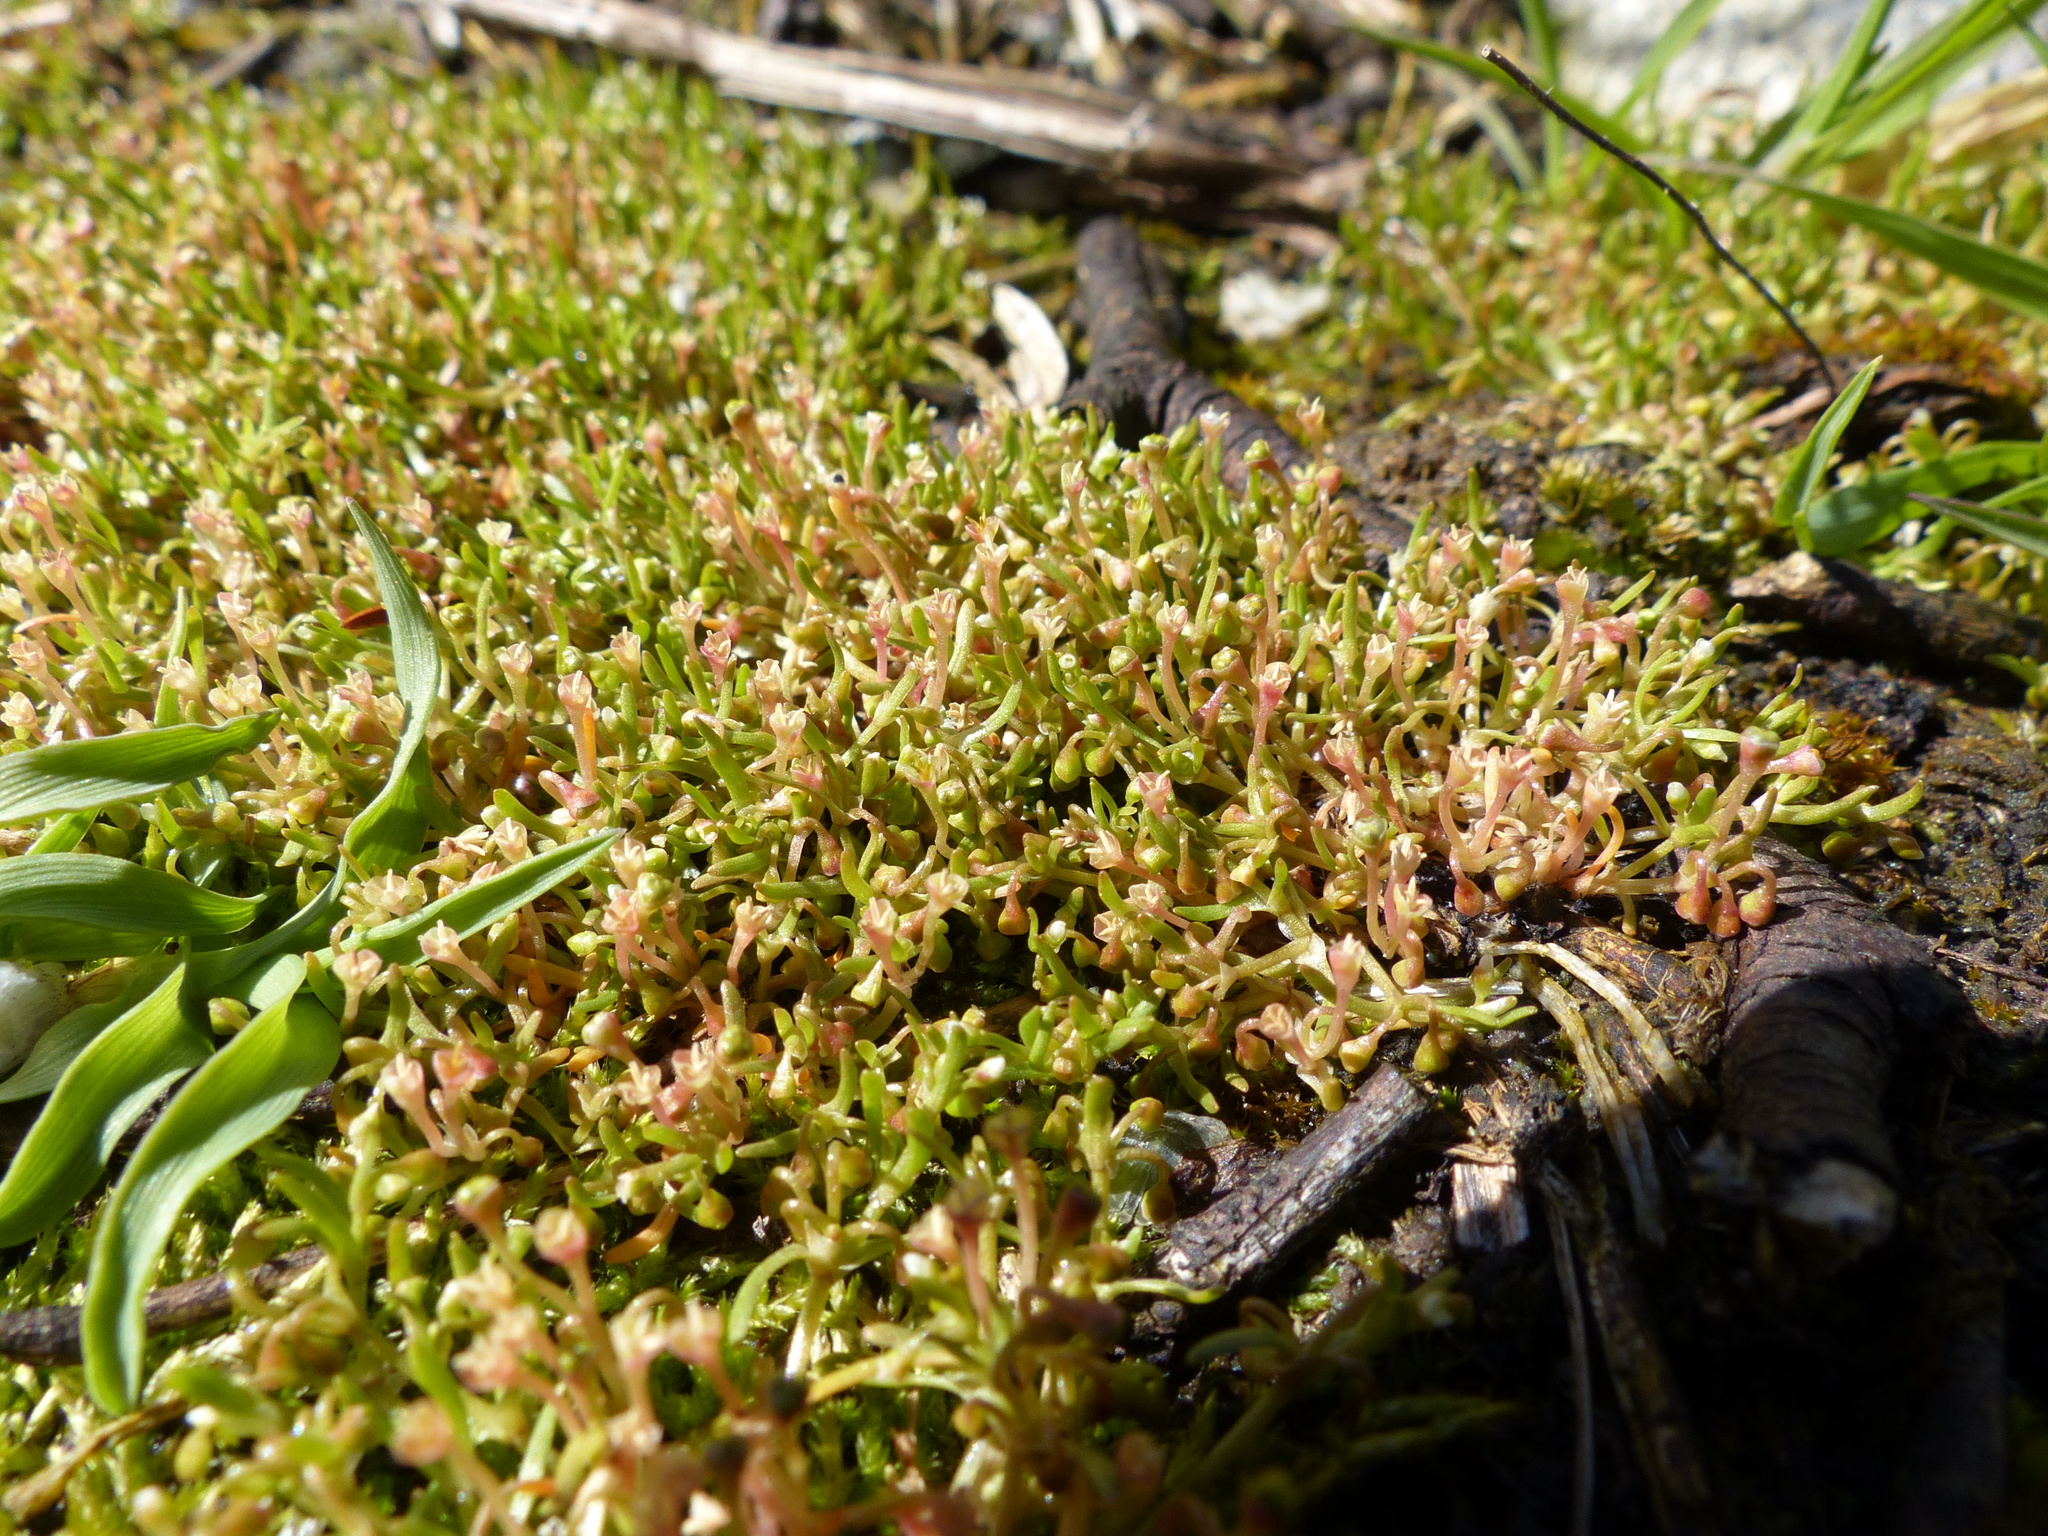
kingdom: Plantae
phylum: Tracheophyta
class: Magnoliopsida
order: Caryophyllales
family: Montiaceae
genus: Montia
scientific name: Montia howellii
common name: Howell's miner's-lettuce
